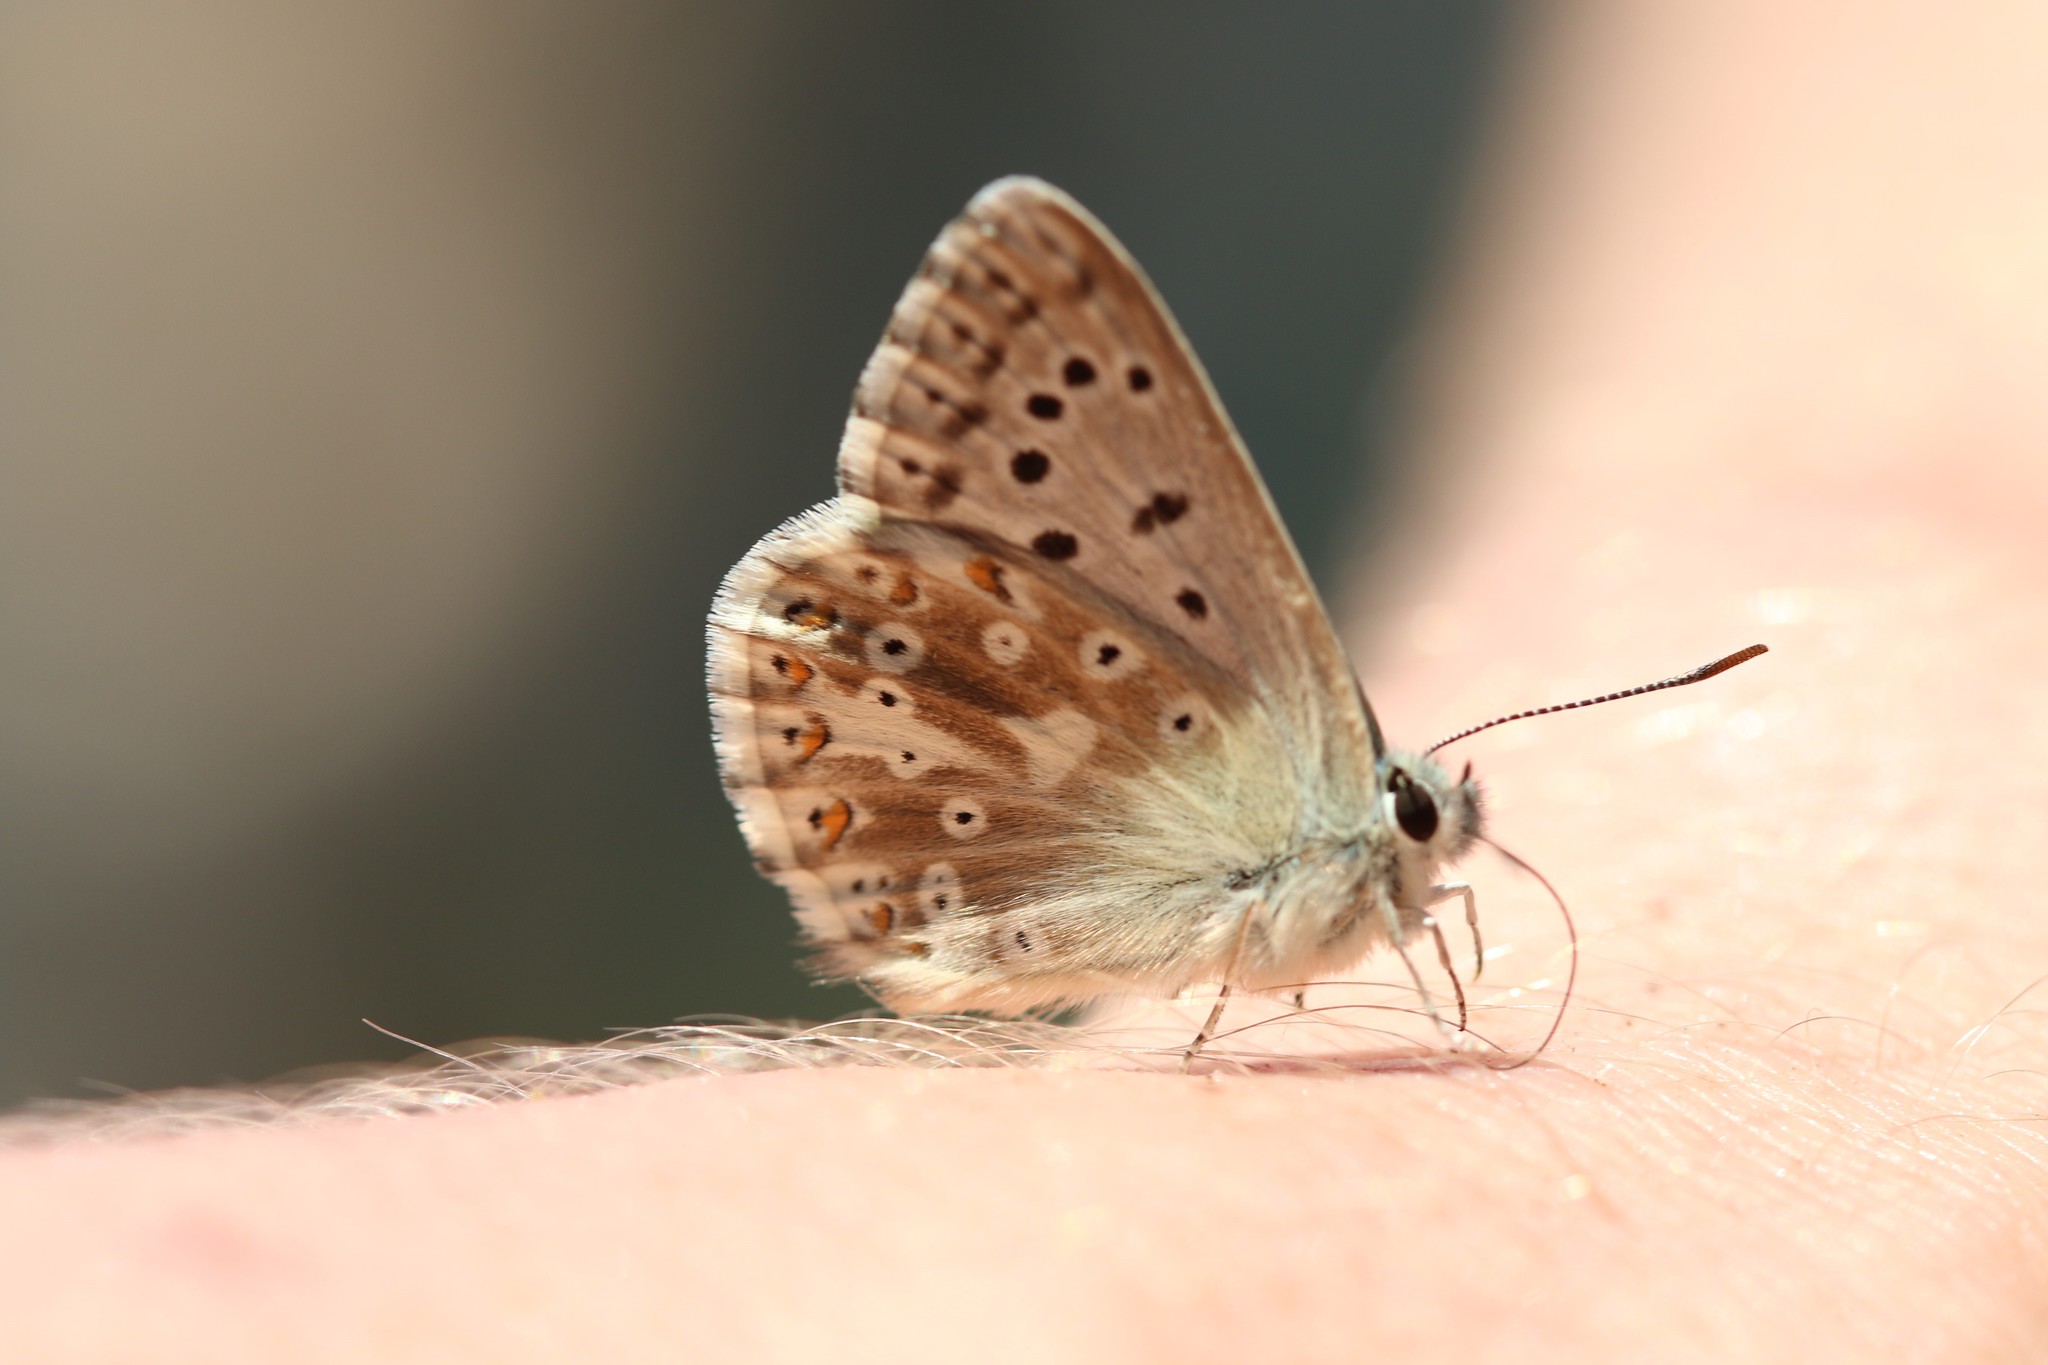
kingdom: Animalia
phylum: Arthropoda
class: Insecta
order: Lepidoptera
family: Lycaenidae
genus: Lysandra
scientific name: Lysandra coridon
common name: Chalkhill blue
